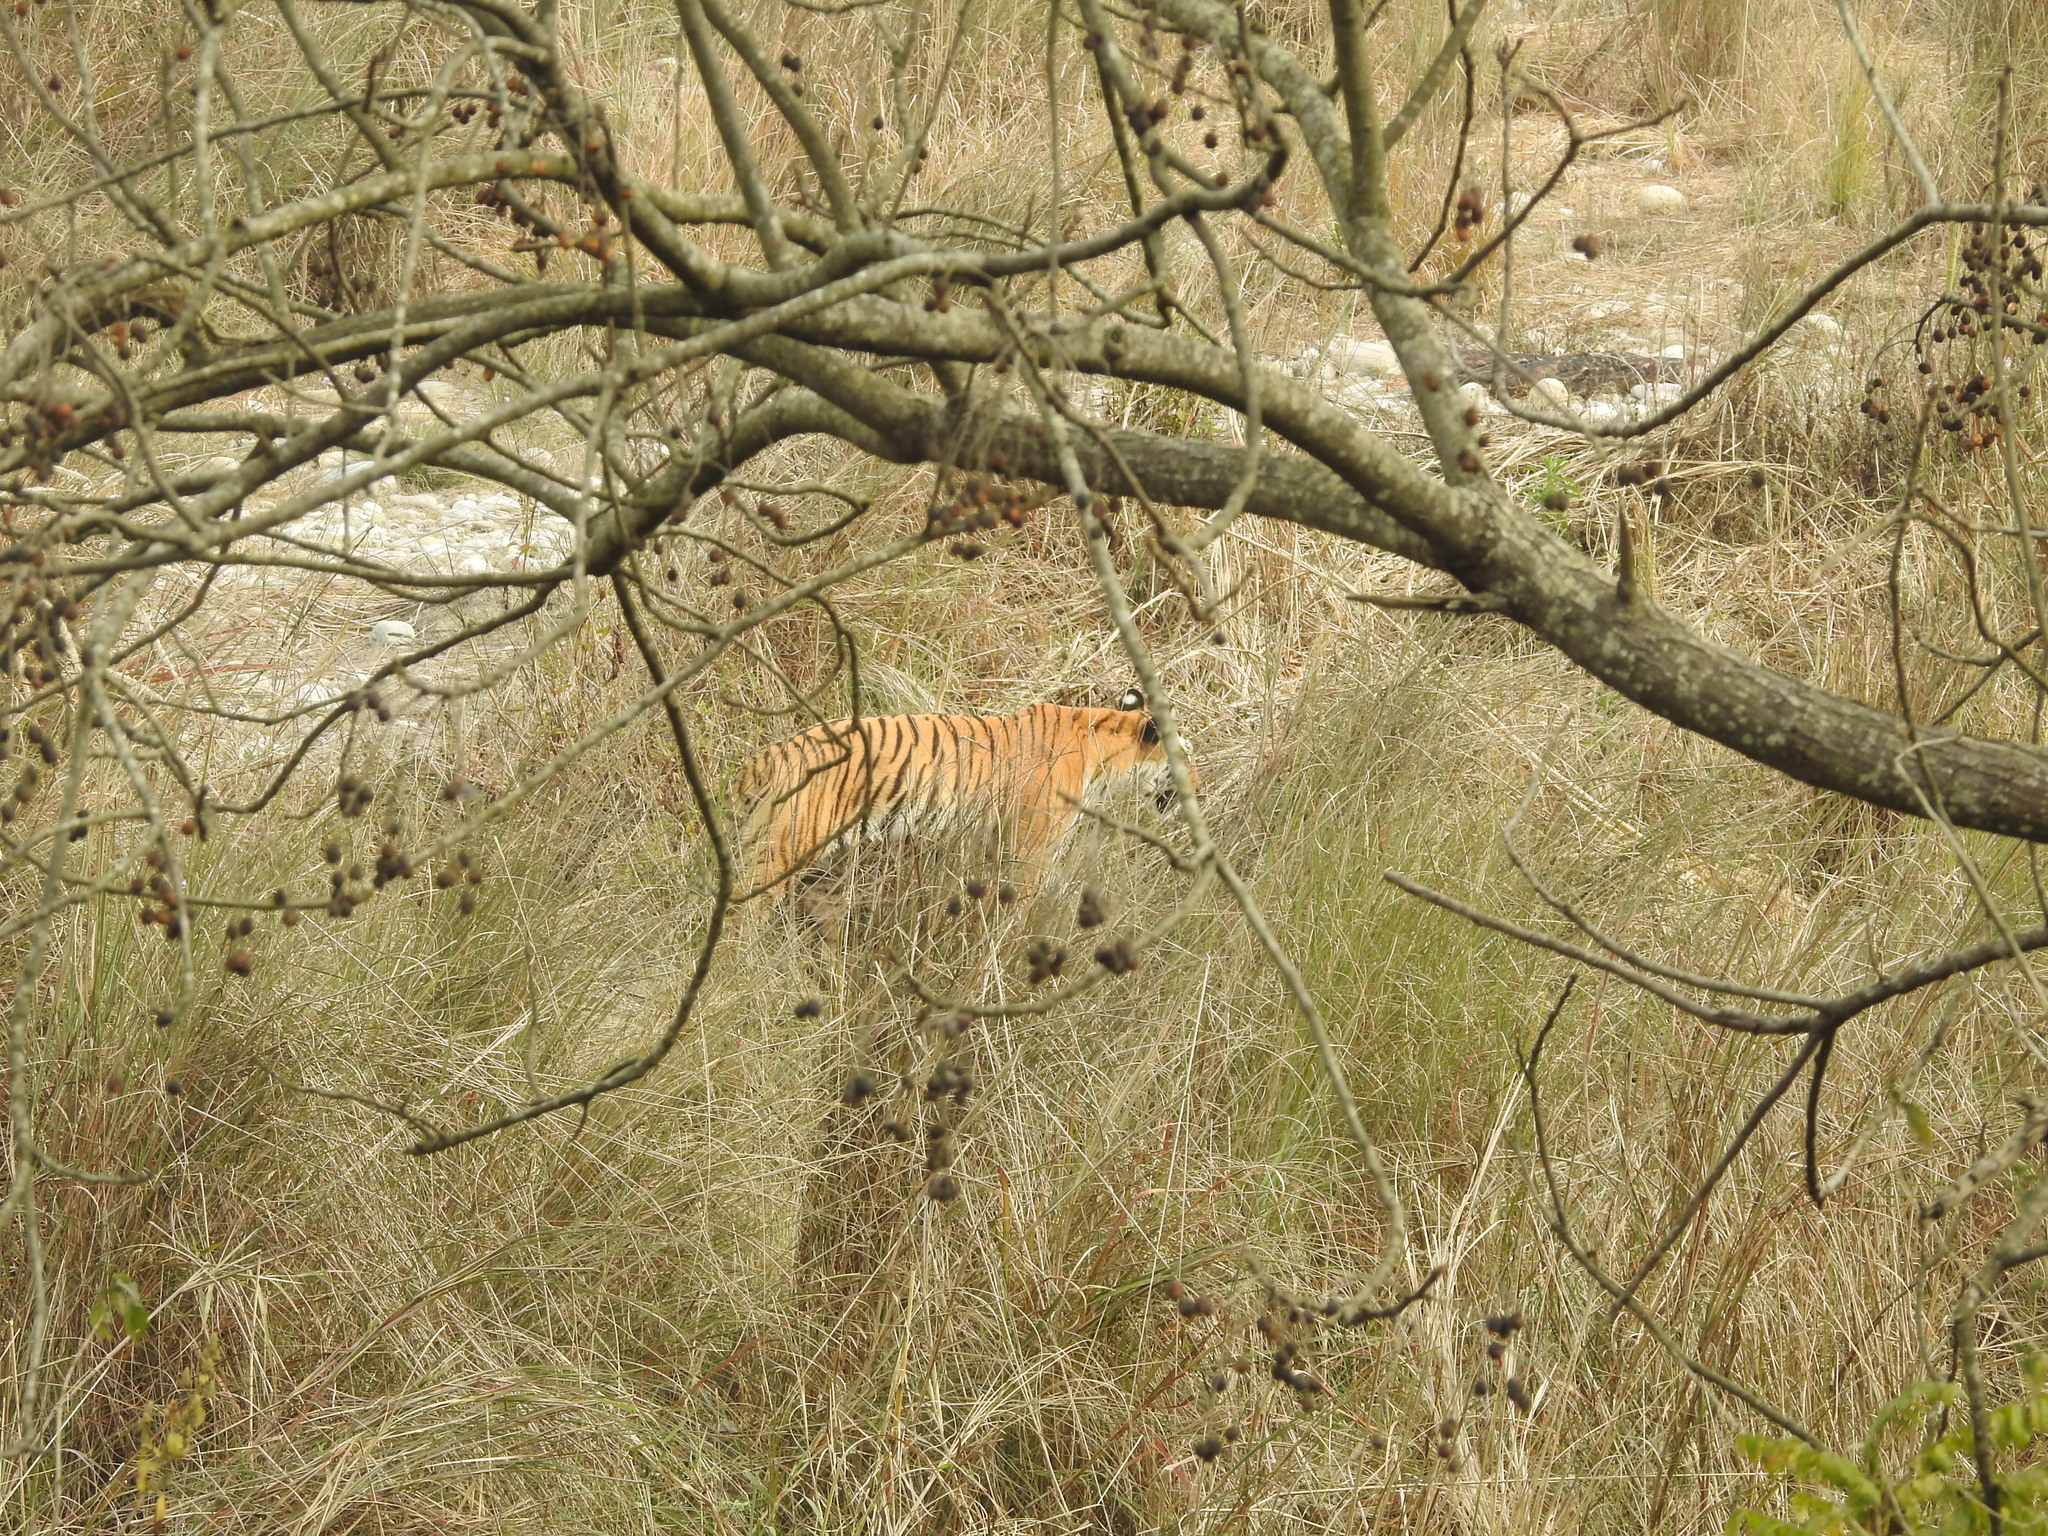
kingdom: Animalia
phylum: Chordata
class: Mammalia
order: Carnivora
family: Felidae
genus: Panthera
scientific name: Panthera tigris
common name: Tiger
